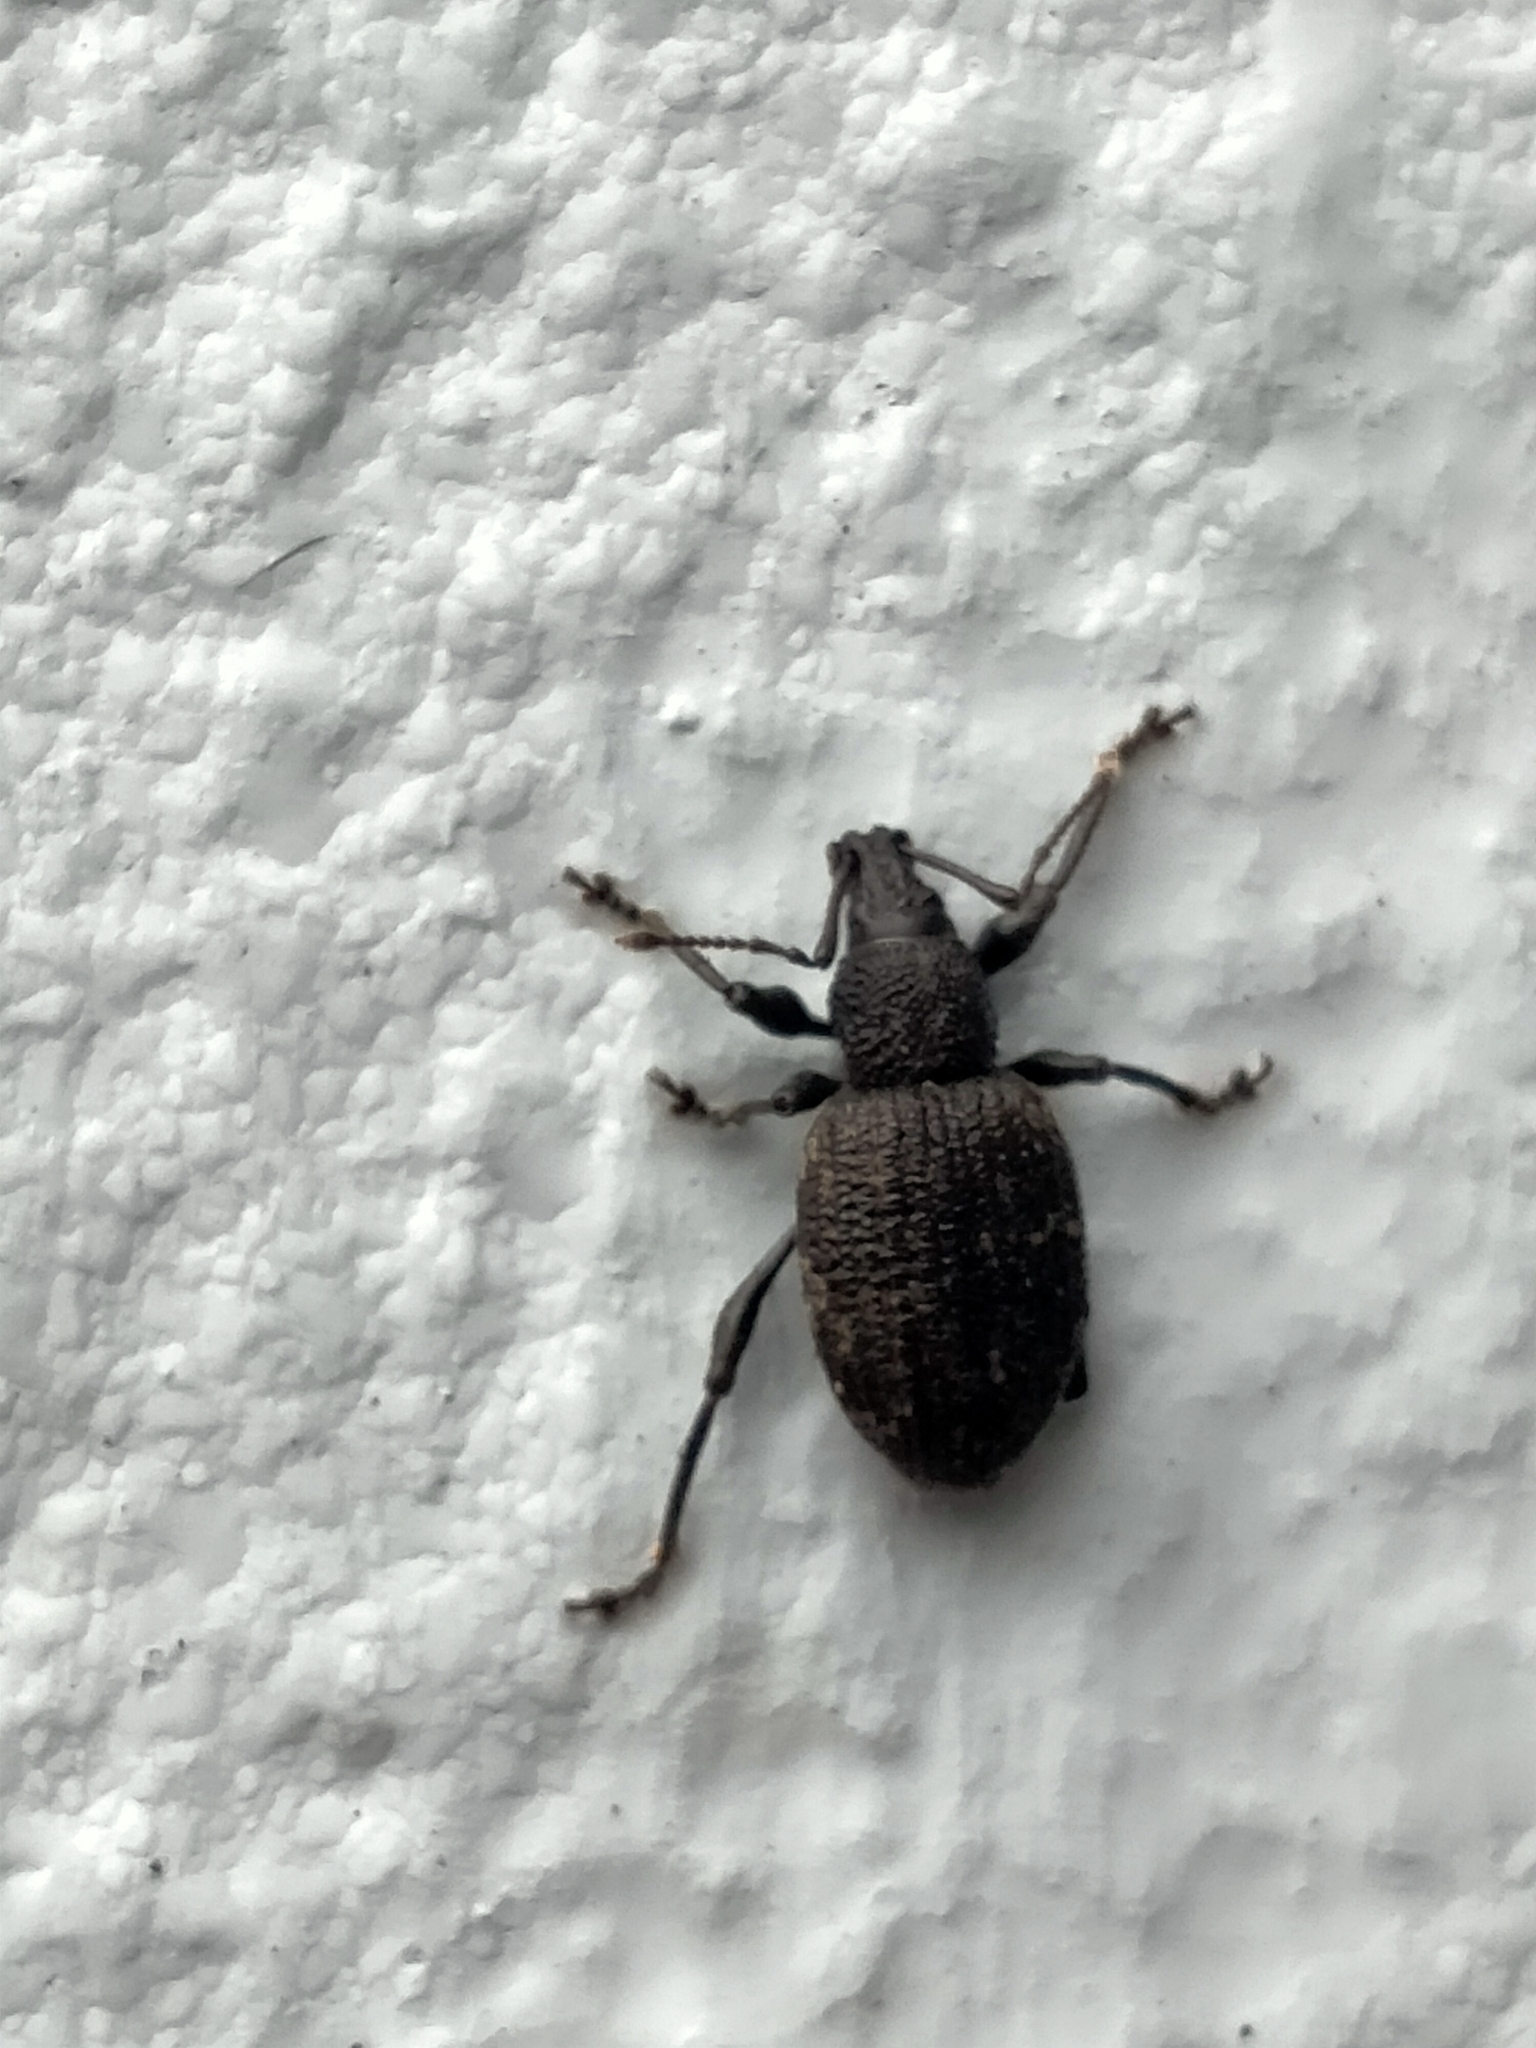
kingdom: Animalia
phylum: Arthropoda
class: Insecta
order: Coleoptera
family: Curculionidae
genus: Otiorhynchus
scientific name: Otiorhynchus sulcatus
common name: Black vine weevil
